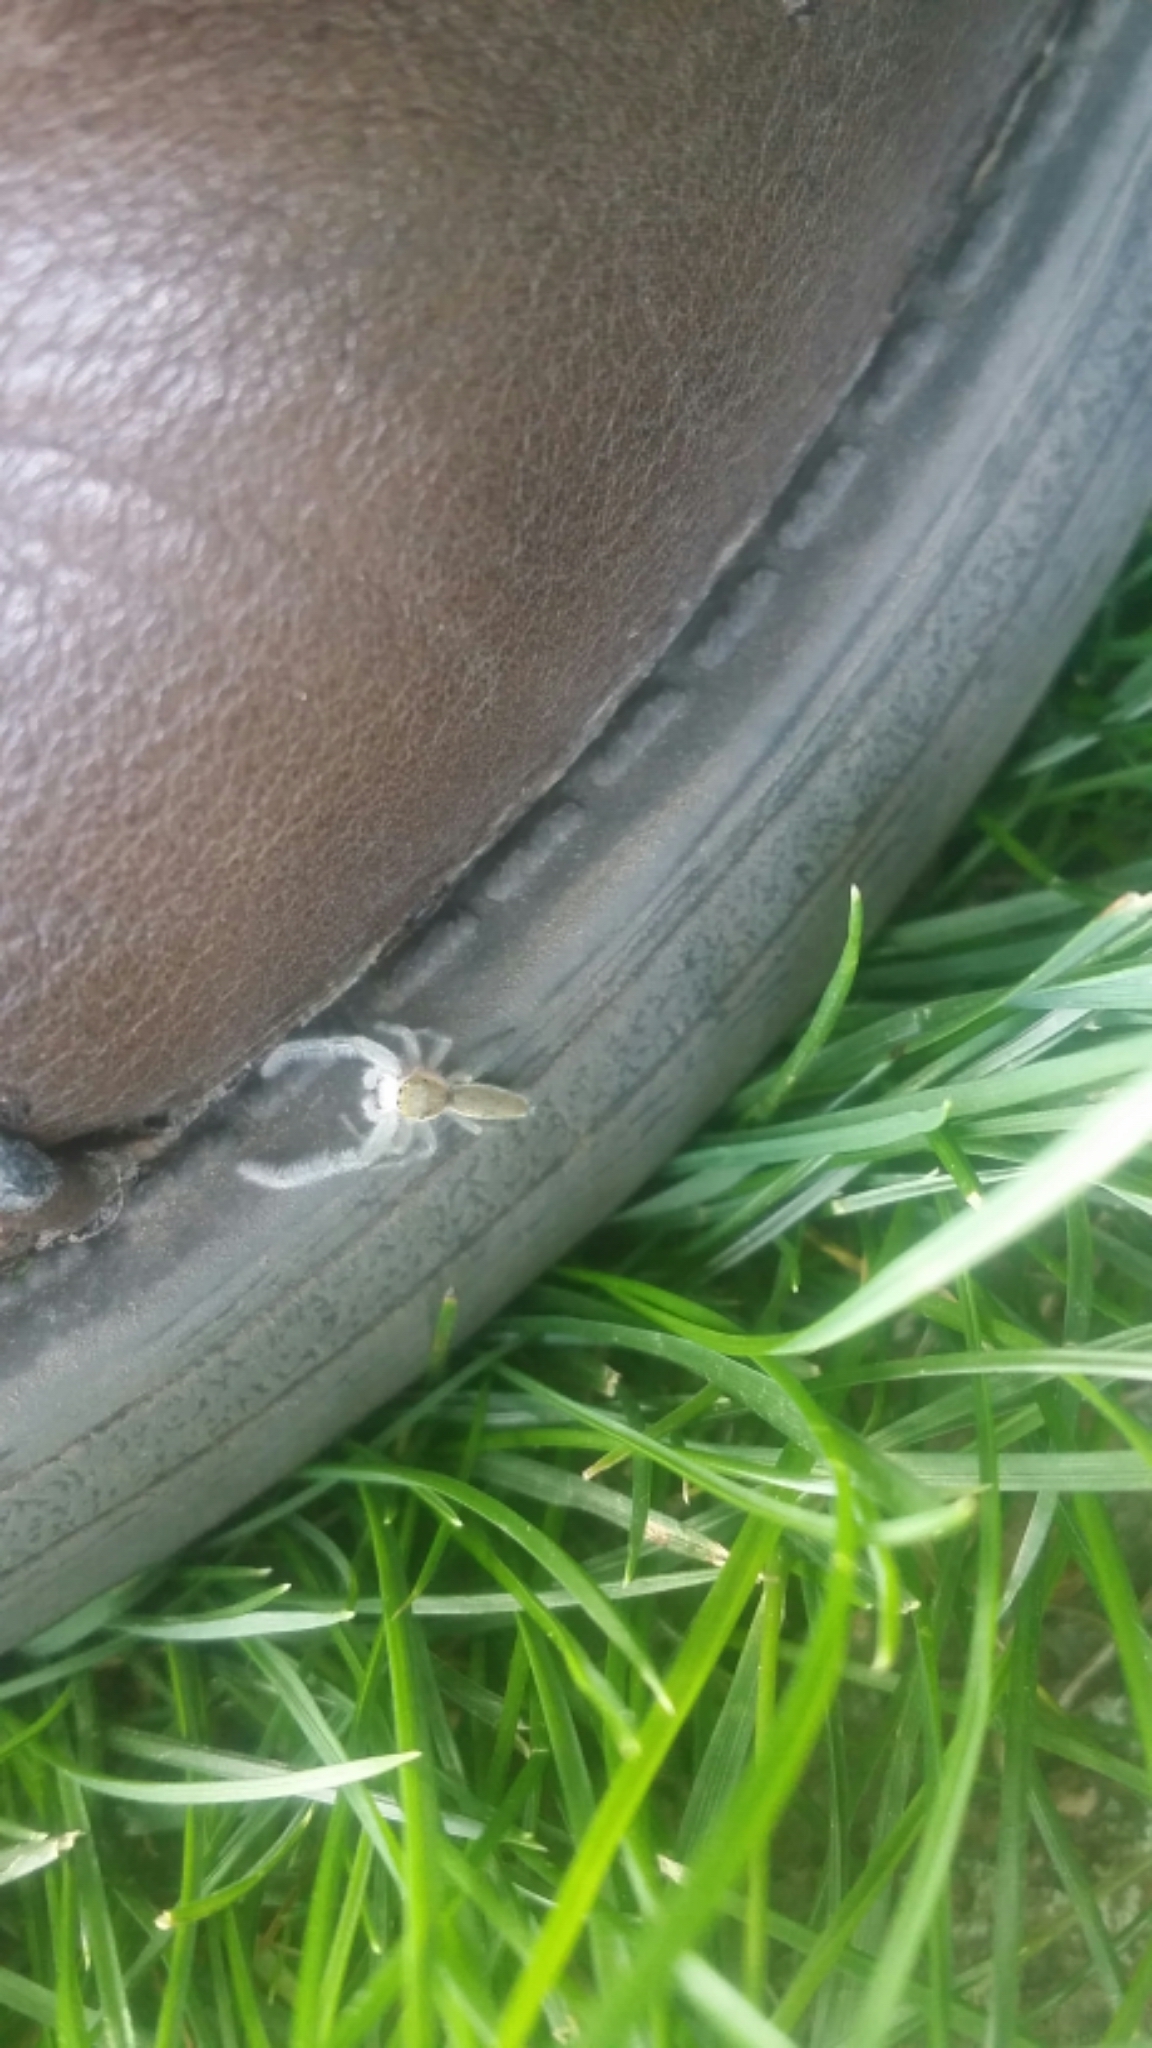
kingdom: Animalia
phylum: Arthropoda
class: Arachnida
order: Araneae
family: Salticidae
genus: Hentzia
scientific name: Hentzia mitrata
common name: White-jawed jumping spider
